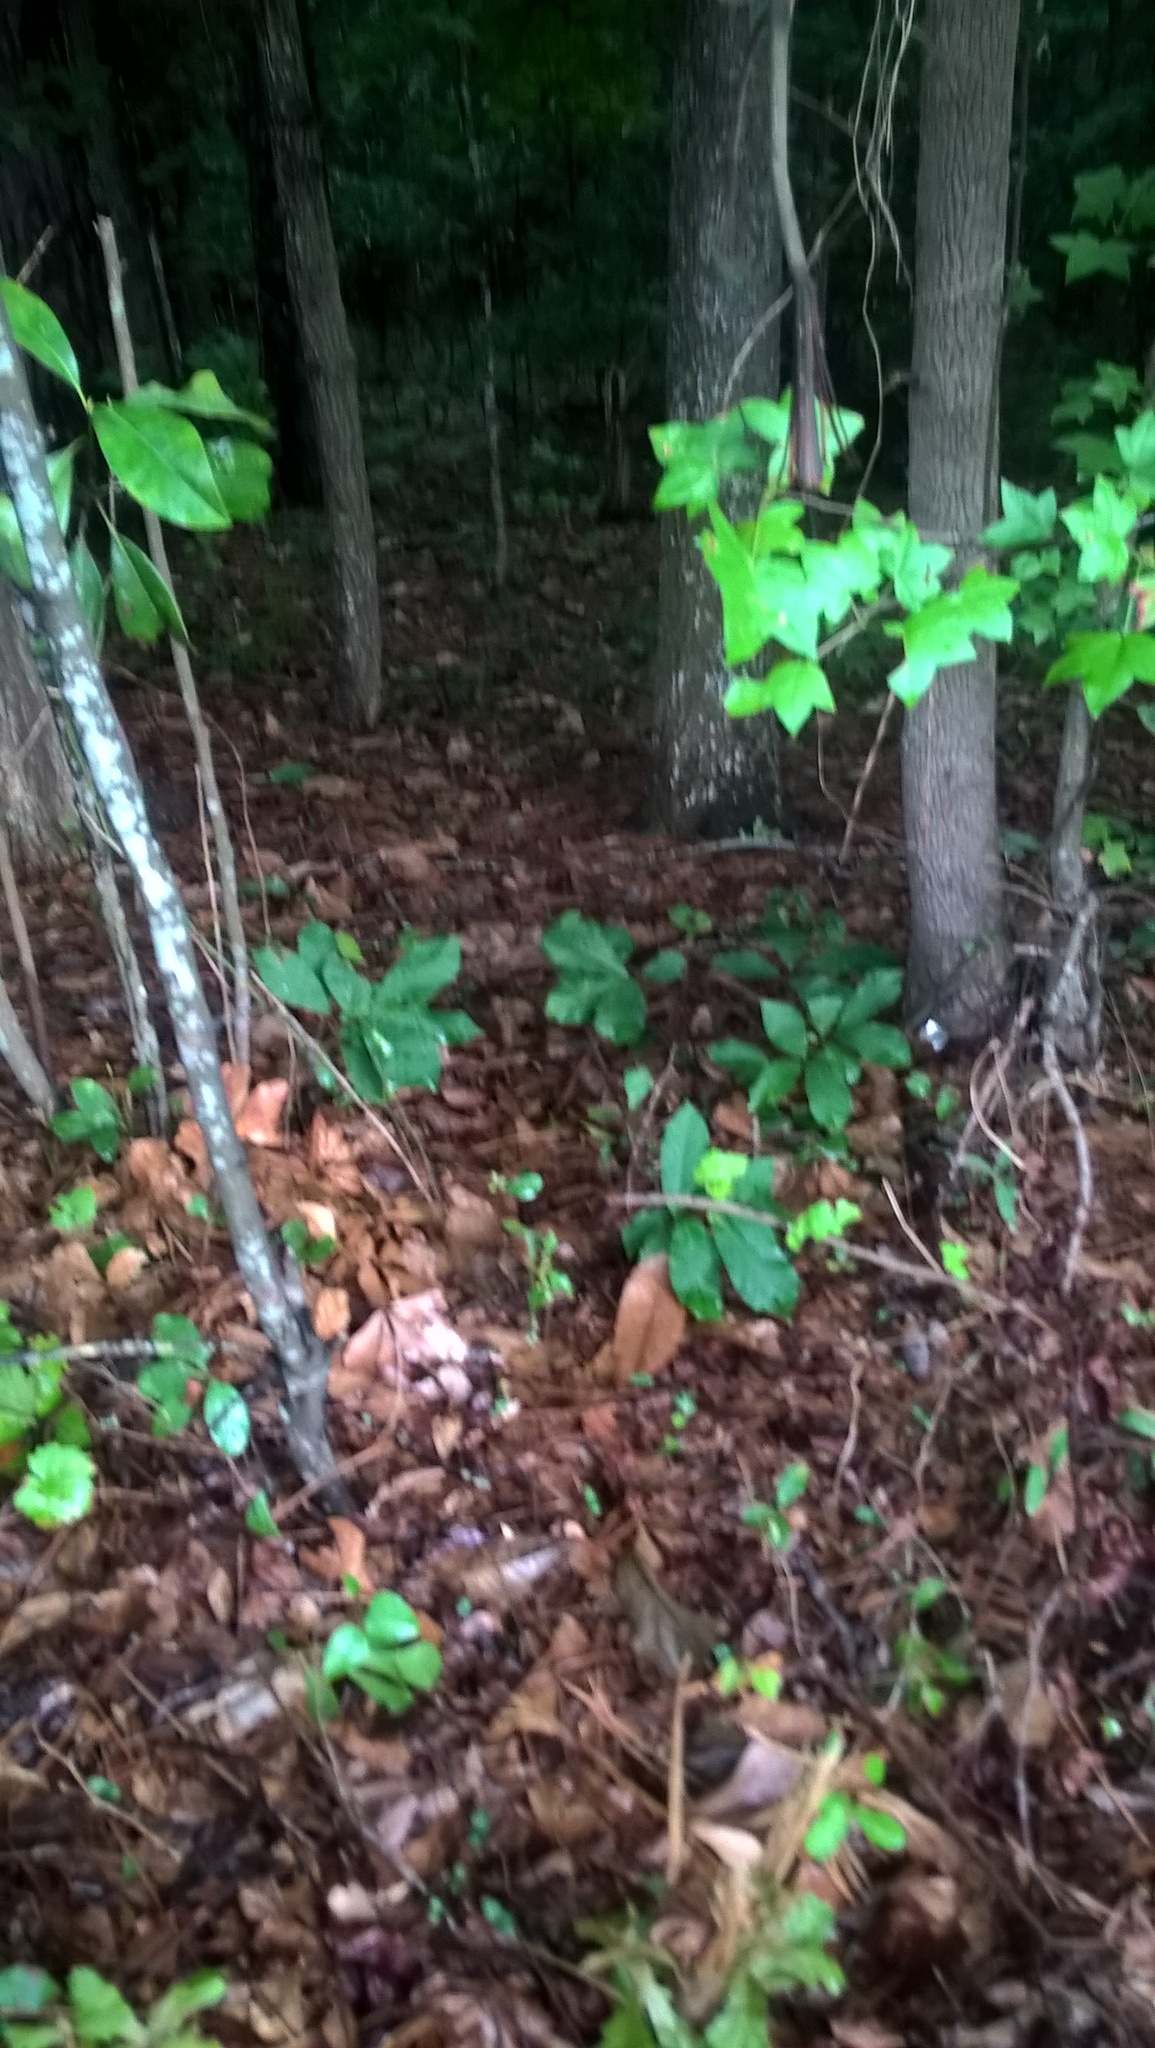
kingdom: Plantae
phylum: Tracheophyta
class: Magnoliopsida
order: Magnoliales
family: Annonaceae
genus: Asimina
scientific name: Asimina parviflora
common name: Dwarf pawpaw
